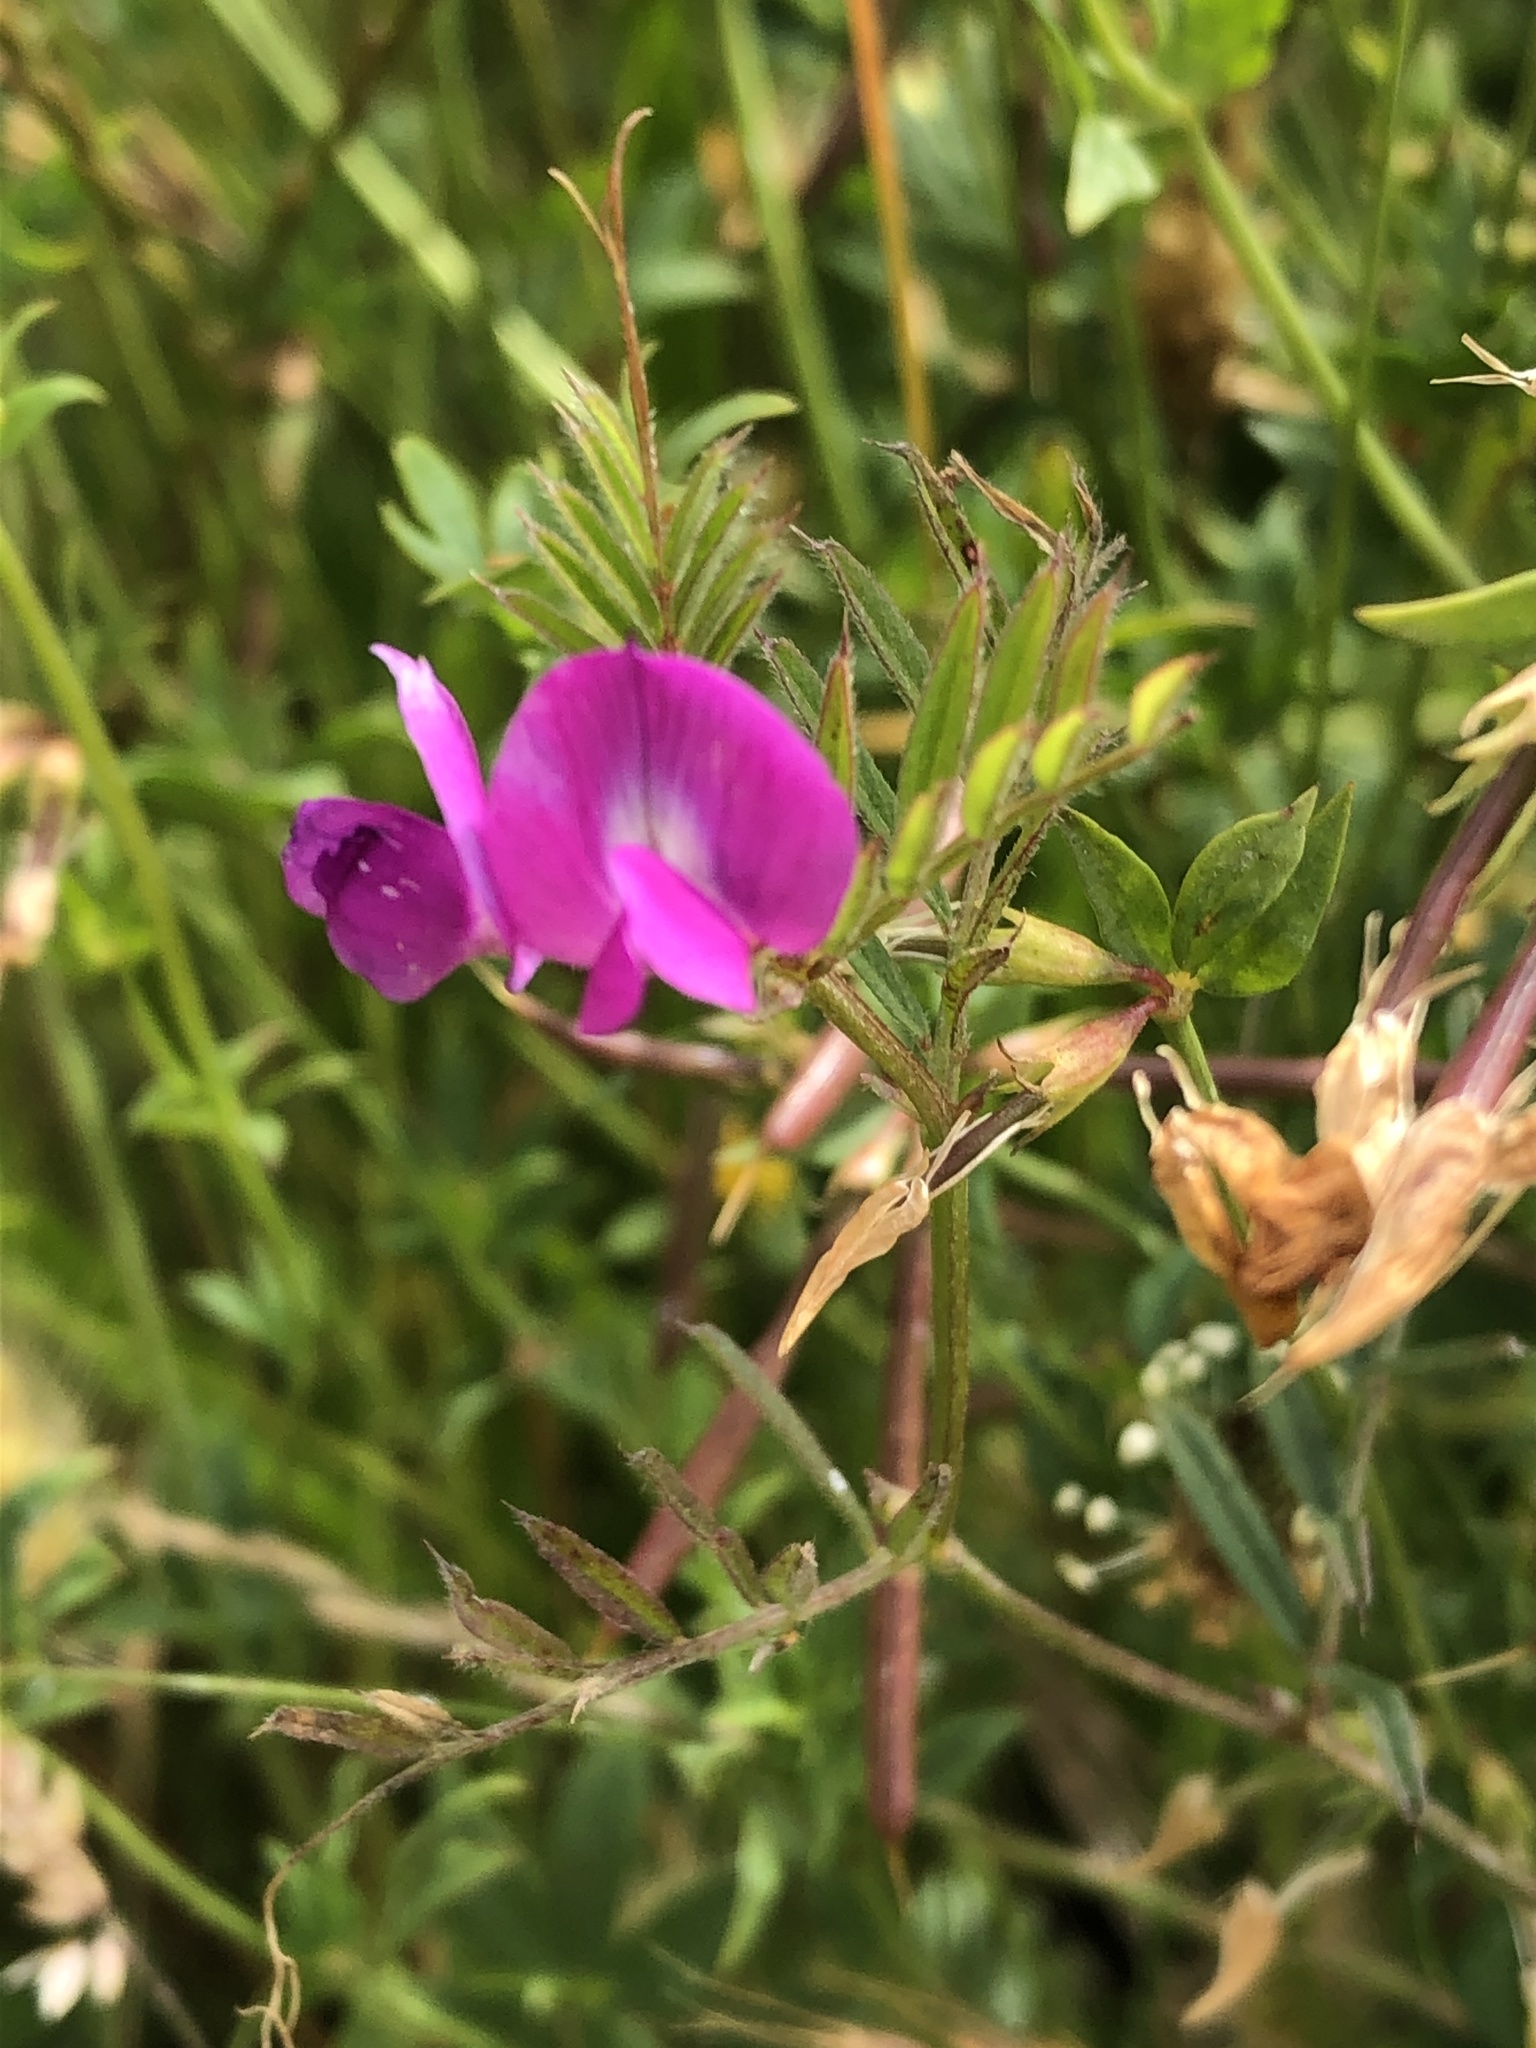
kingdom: Plantae
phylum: Tracheophyta
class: Magnoliopsida
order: Fabales
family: Fabaceae
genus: Vicia
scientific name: Vicia sativa
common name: Garden vetch
